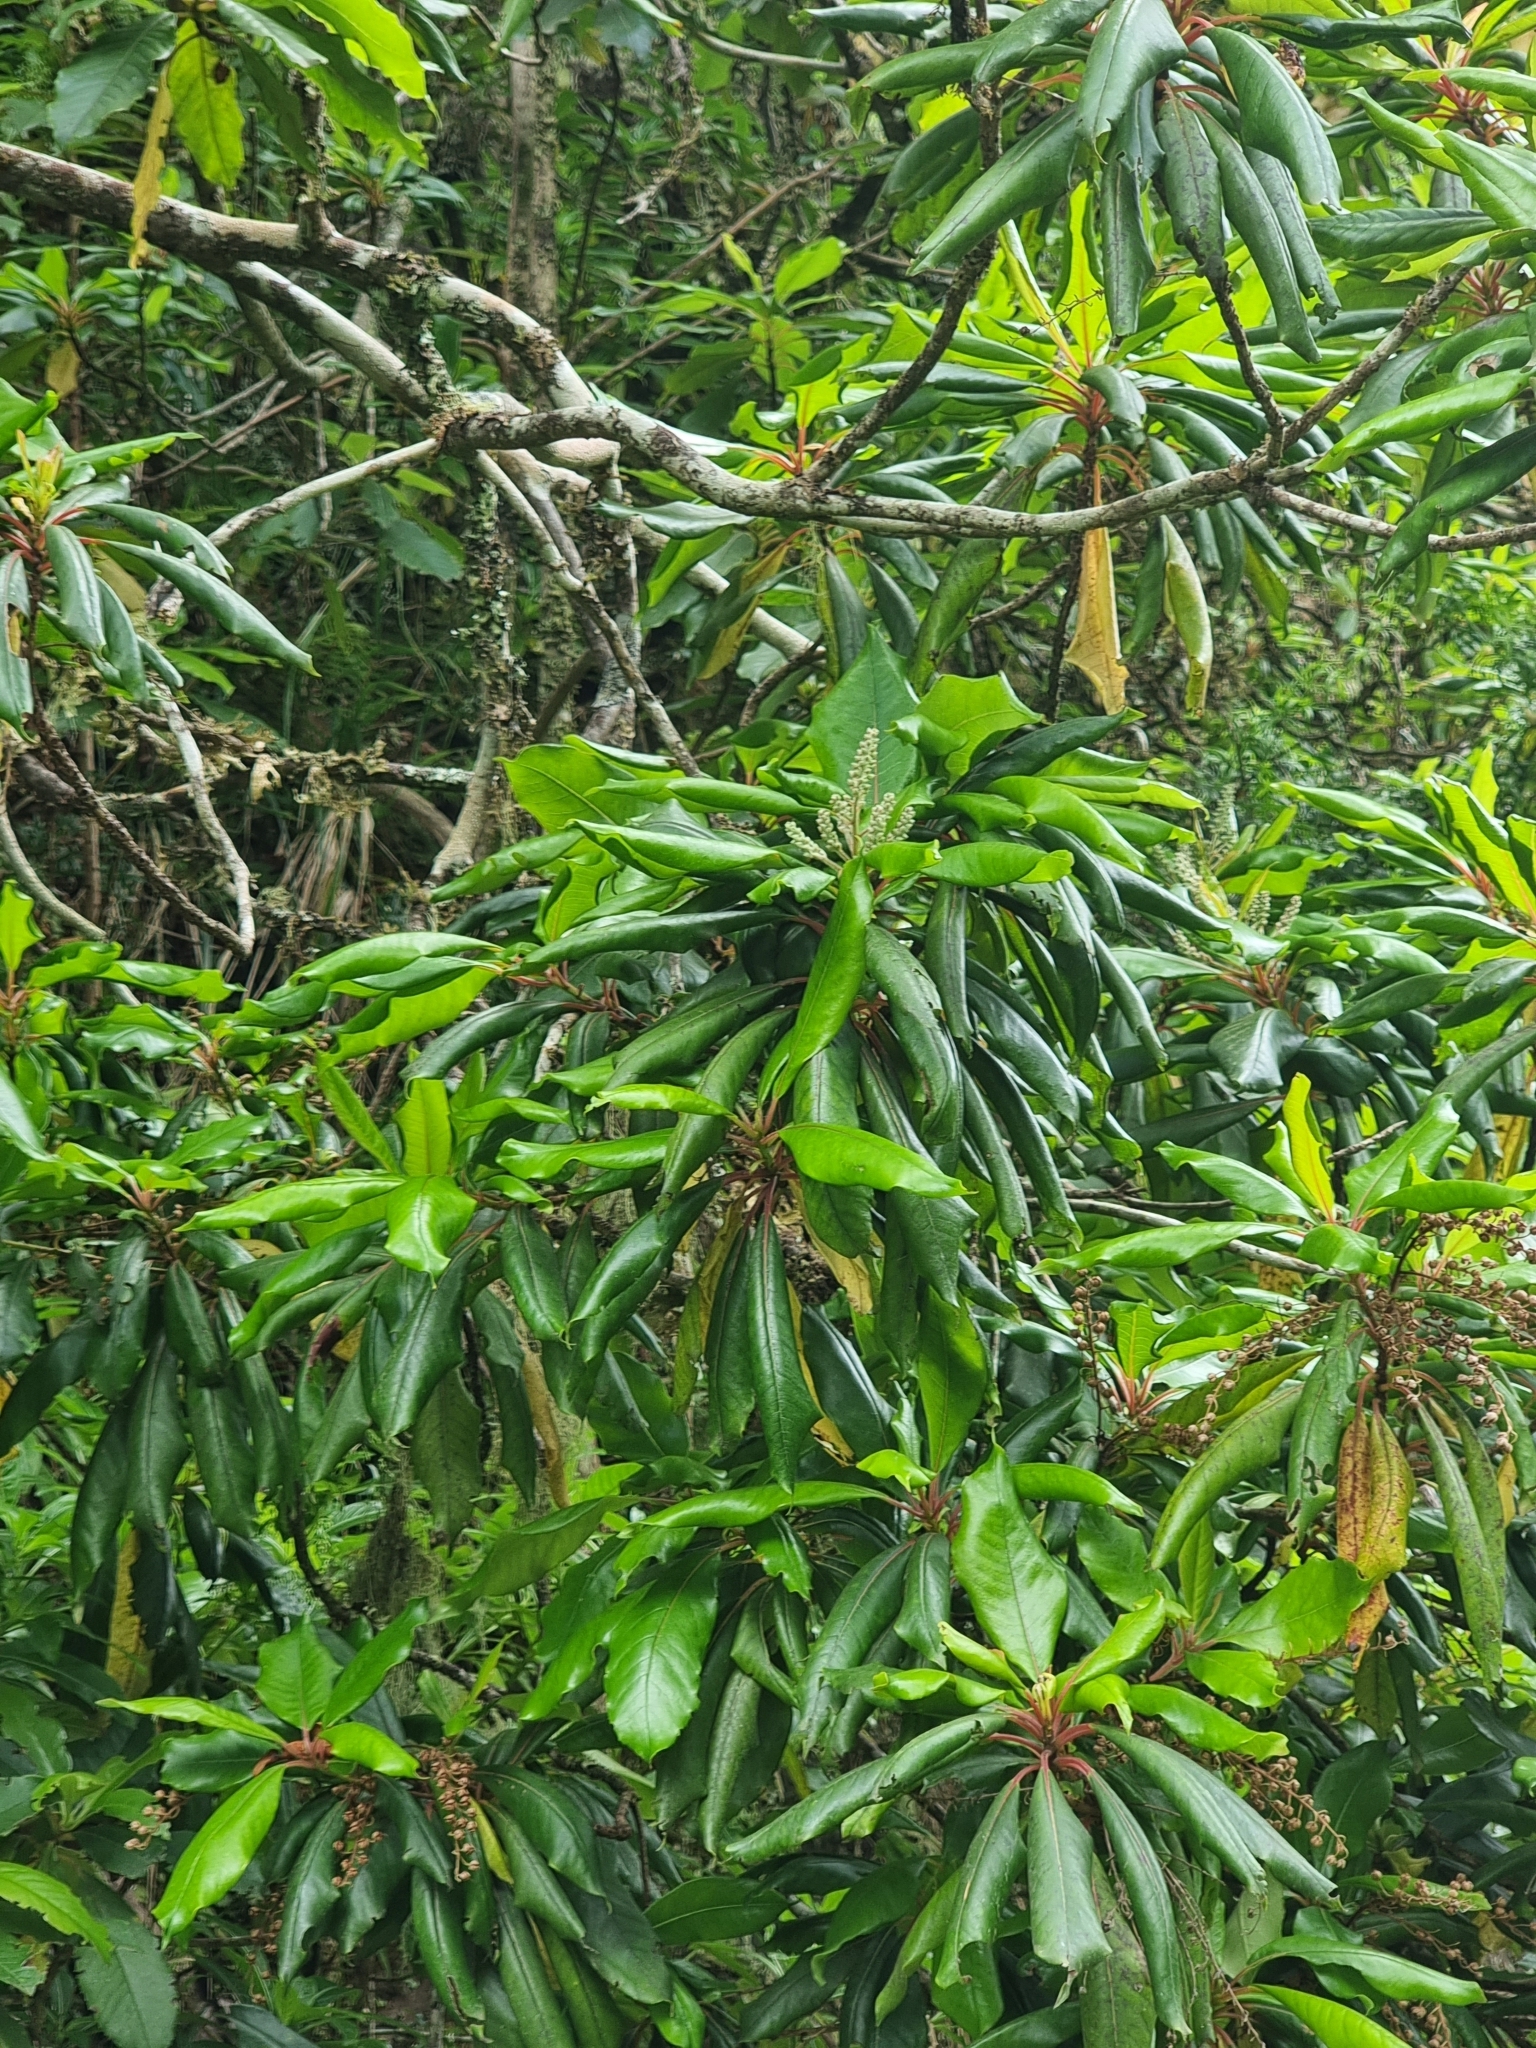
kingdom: Plantae
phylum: Tracheophyta
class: Magnoliopsida
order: Ericales
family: Clethraceae
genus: Clethra
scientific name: Clethra arborea
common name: Lily-of-the-valley-tree
